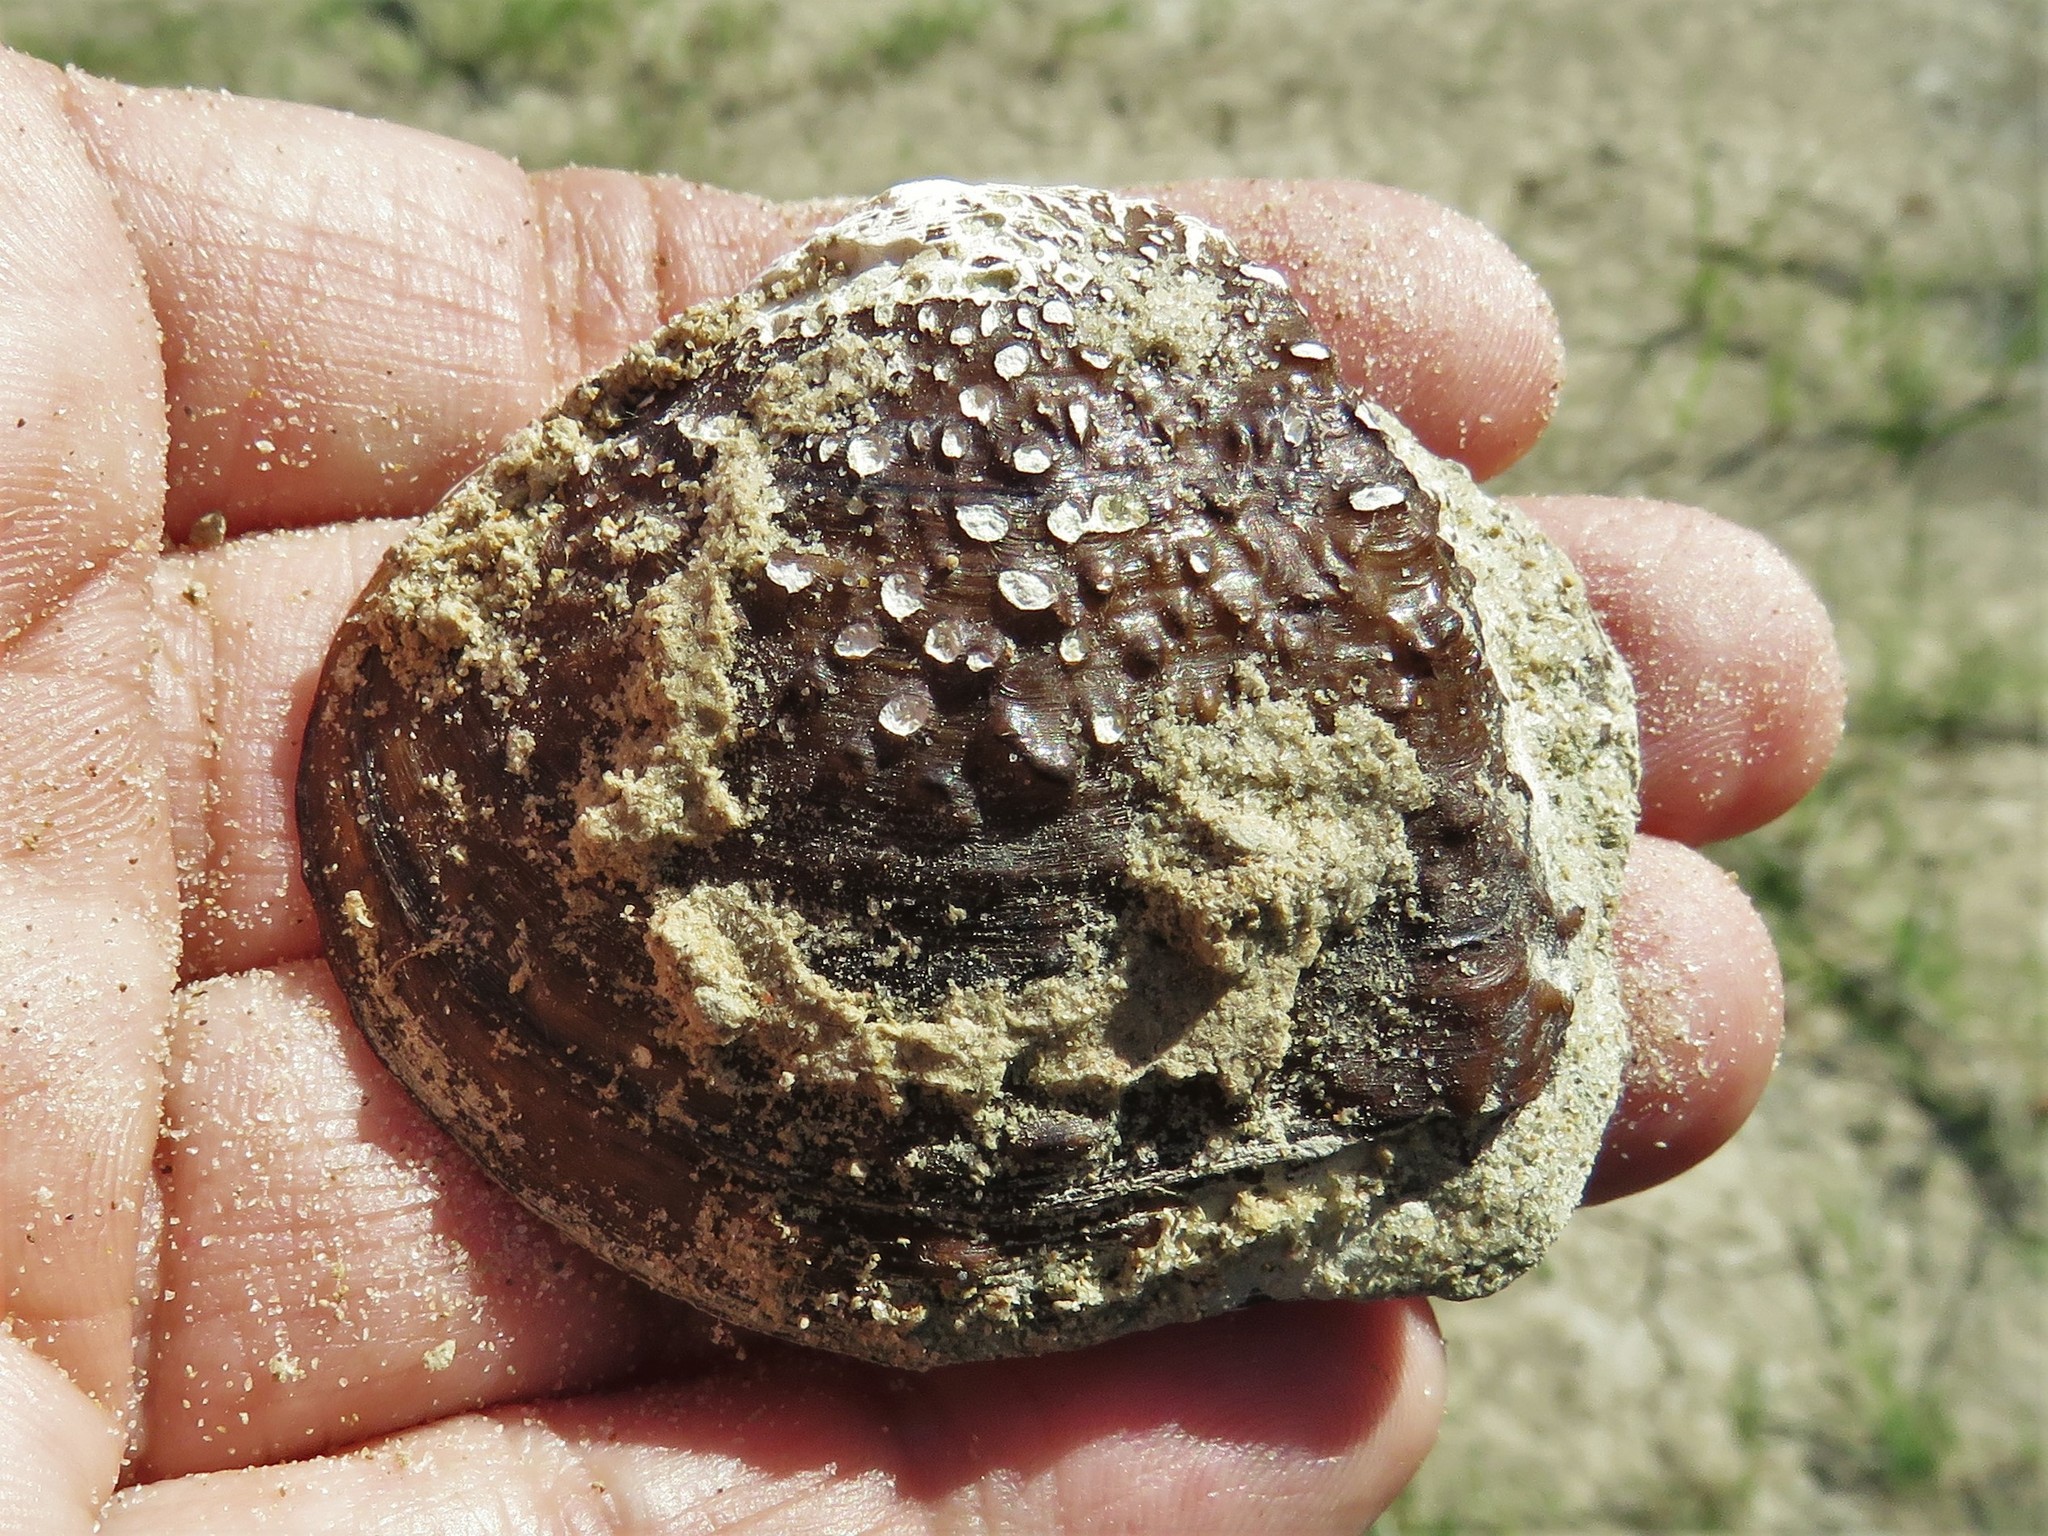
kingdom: Animalia
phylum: Mollusca
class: Bivalvia
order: Unionida
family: Unionidae
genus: Quadrula
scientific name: Quadrula quadrula
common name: Mapleleaf
